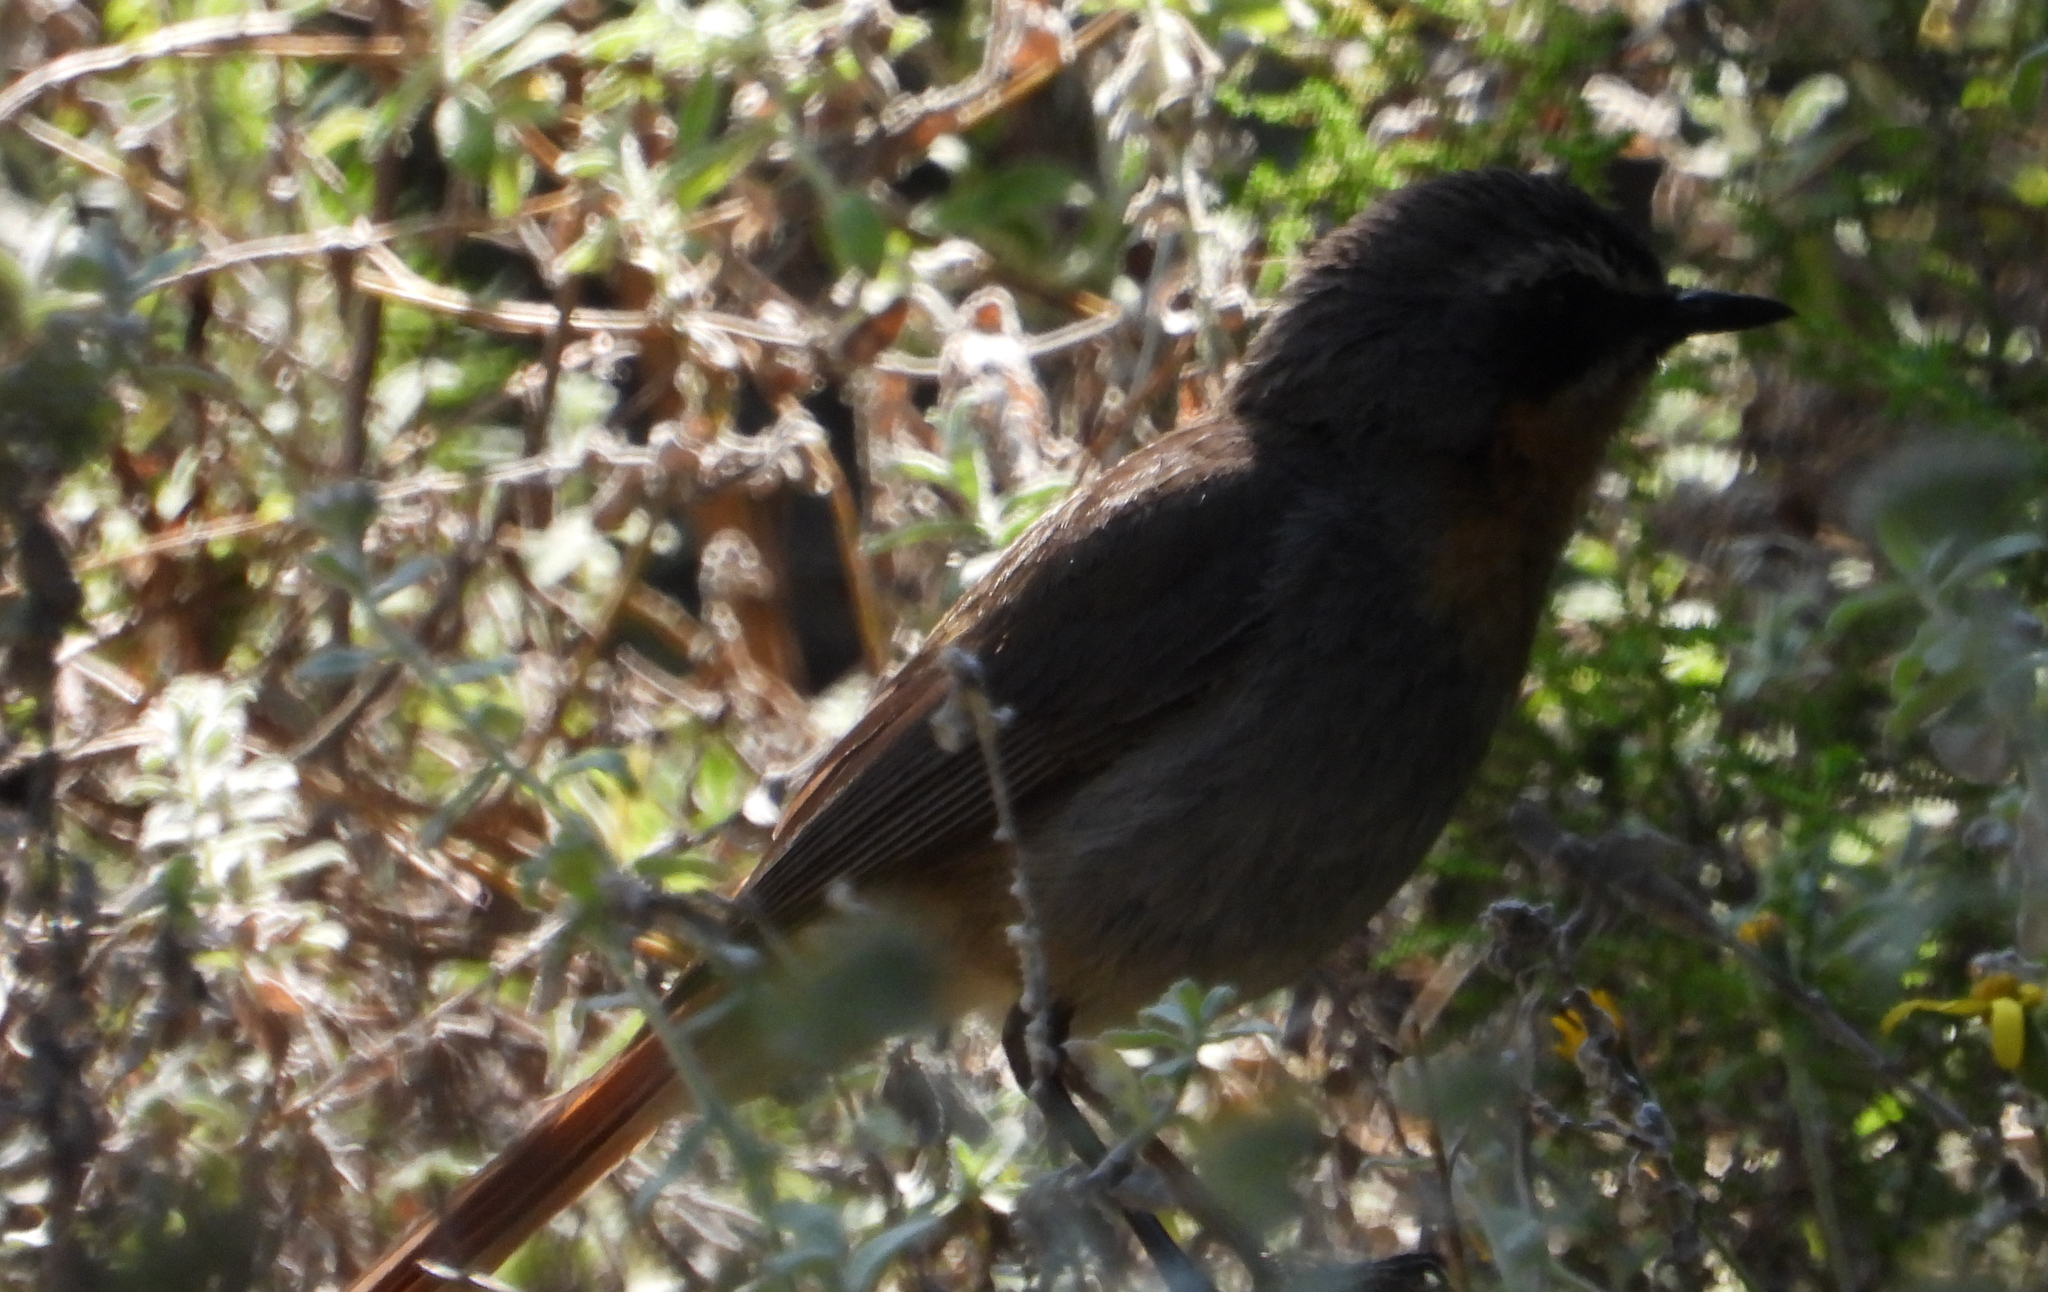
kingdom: Animalia
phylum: Chordata
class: Aves
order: Passeriformes
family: Muscicapidae
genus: Cossypha
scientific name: Cossypha caffra
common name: Cape robin-chat
